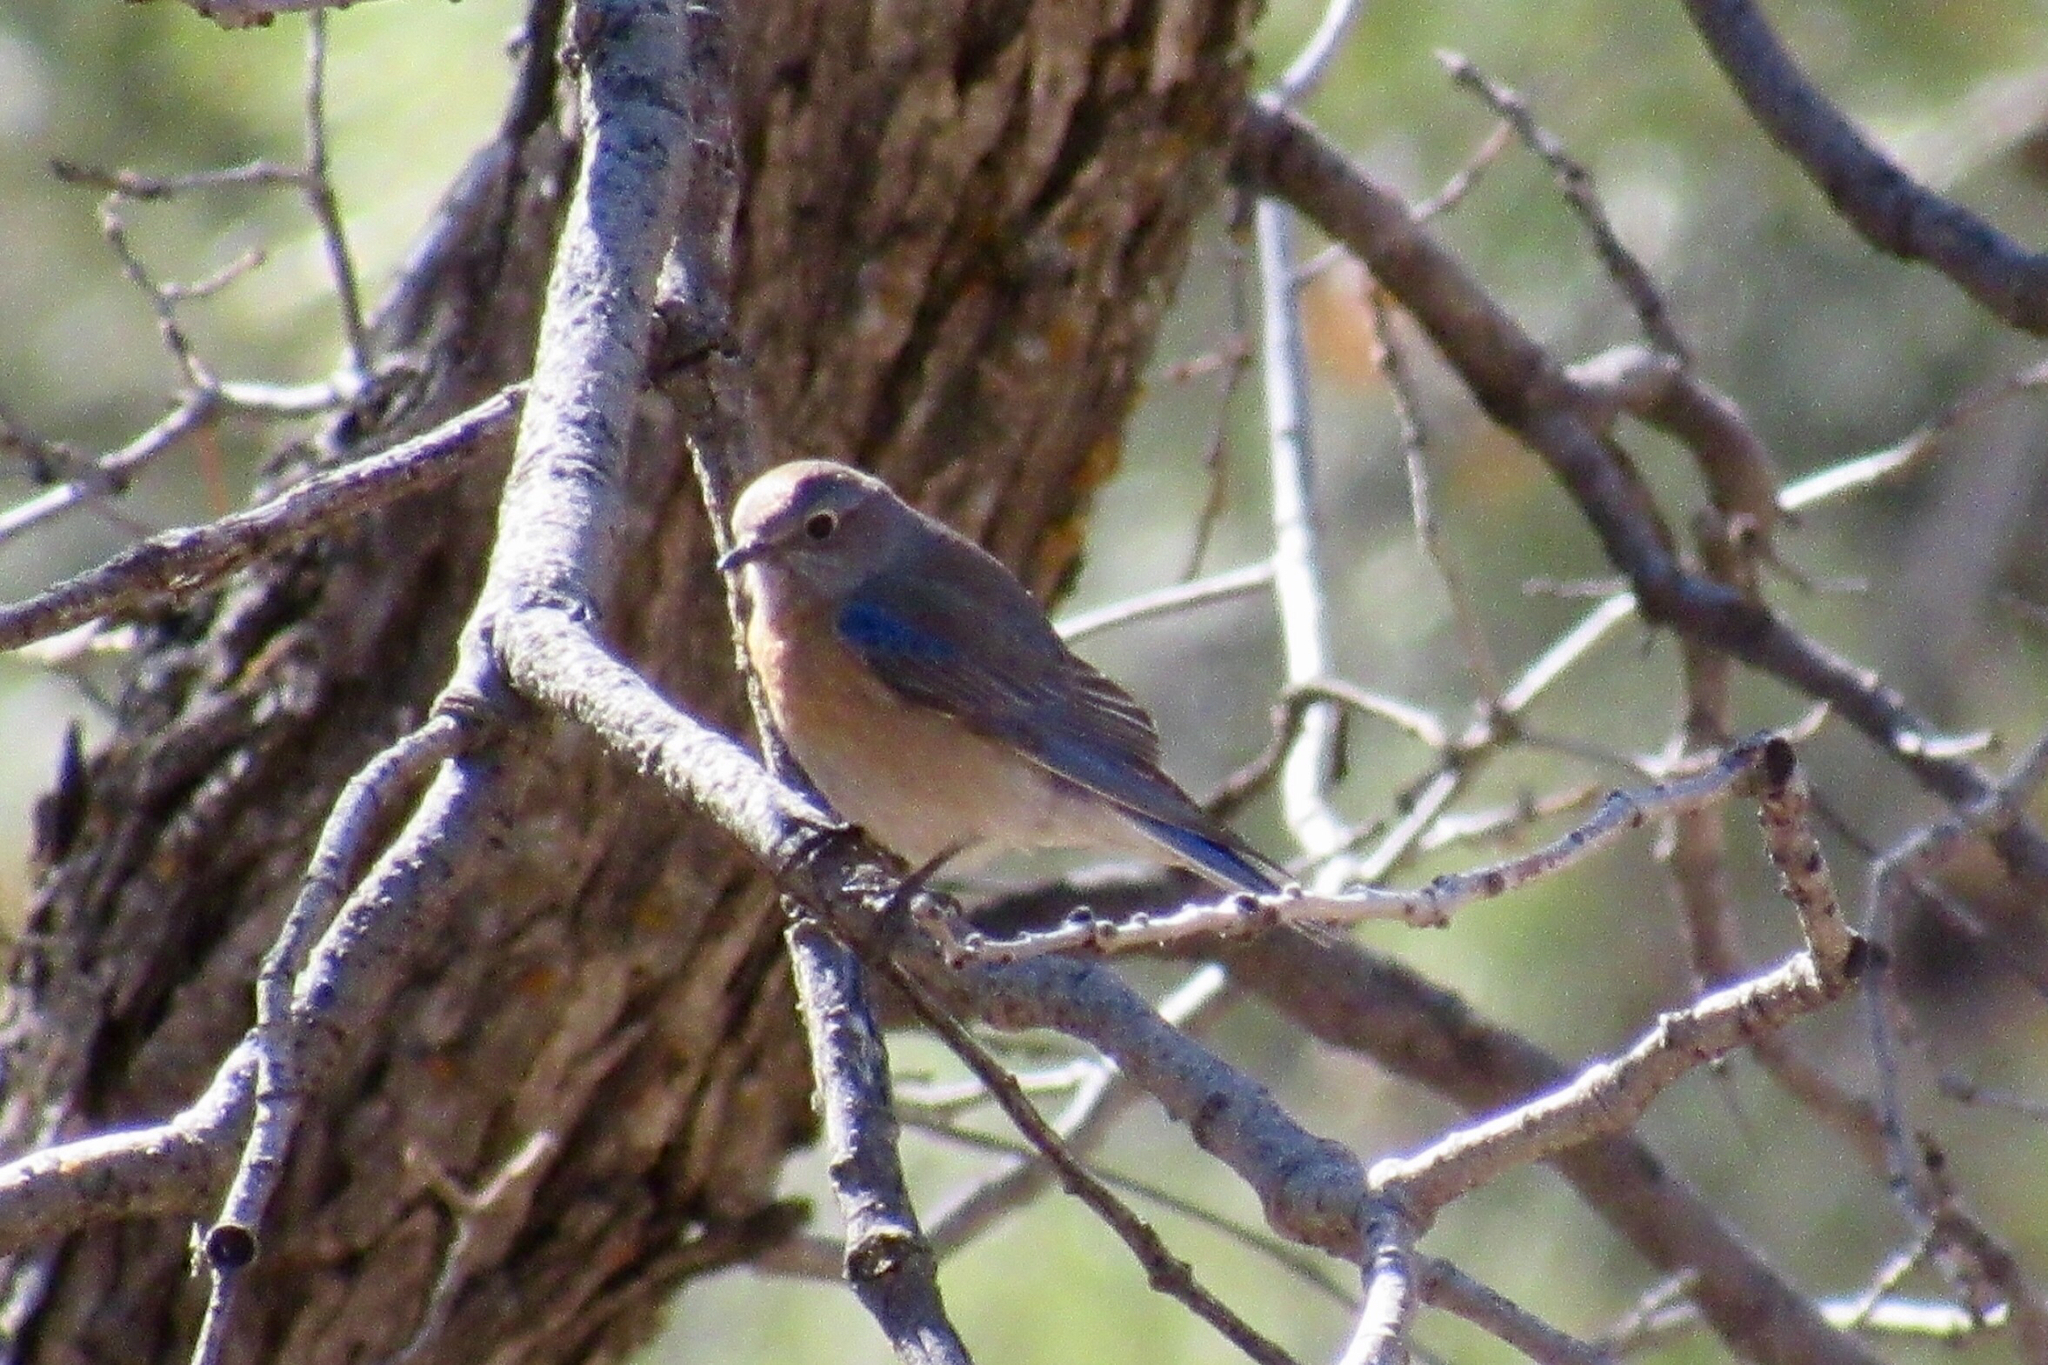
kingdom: Animalia
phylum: Chordata
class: Aves
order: Passeriformes
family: Turdidae
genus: Sialia
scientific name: Sialia mexicana
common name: Western bluebird
